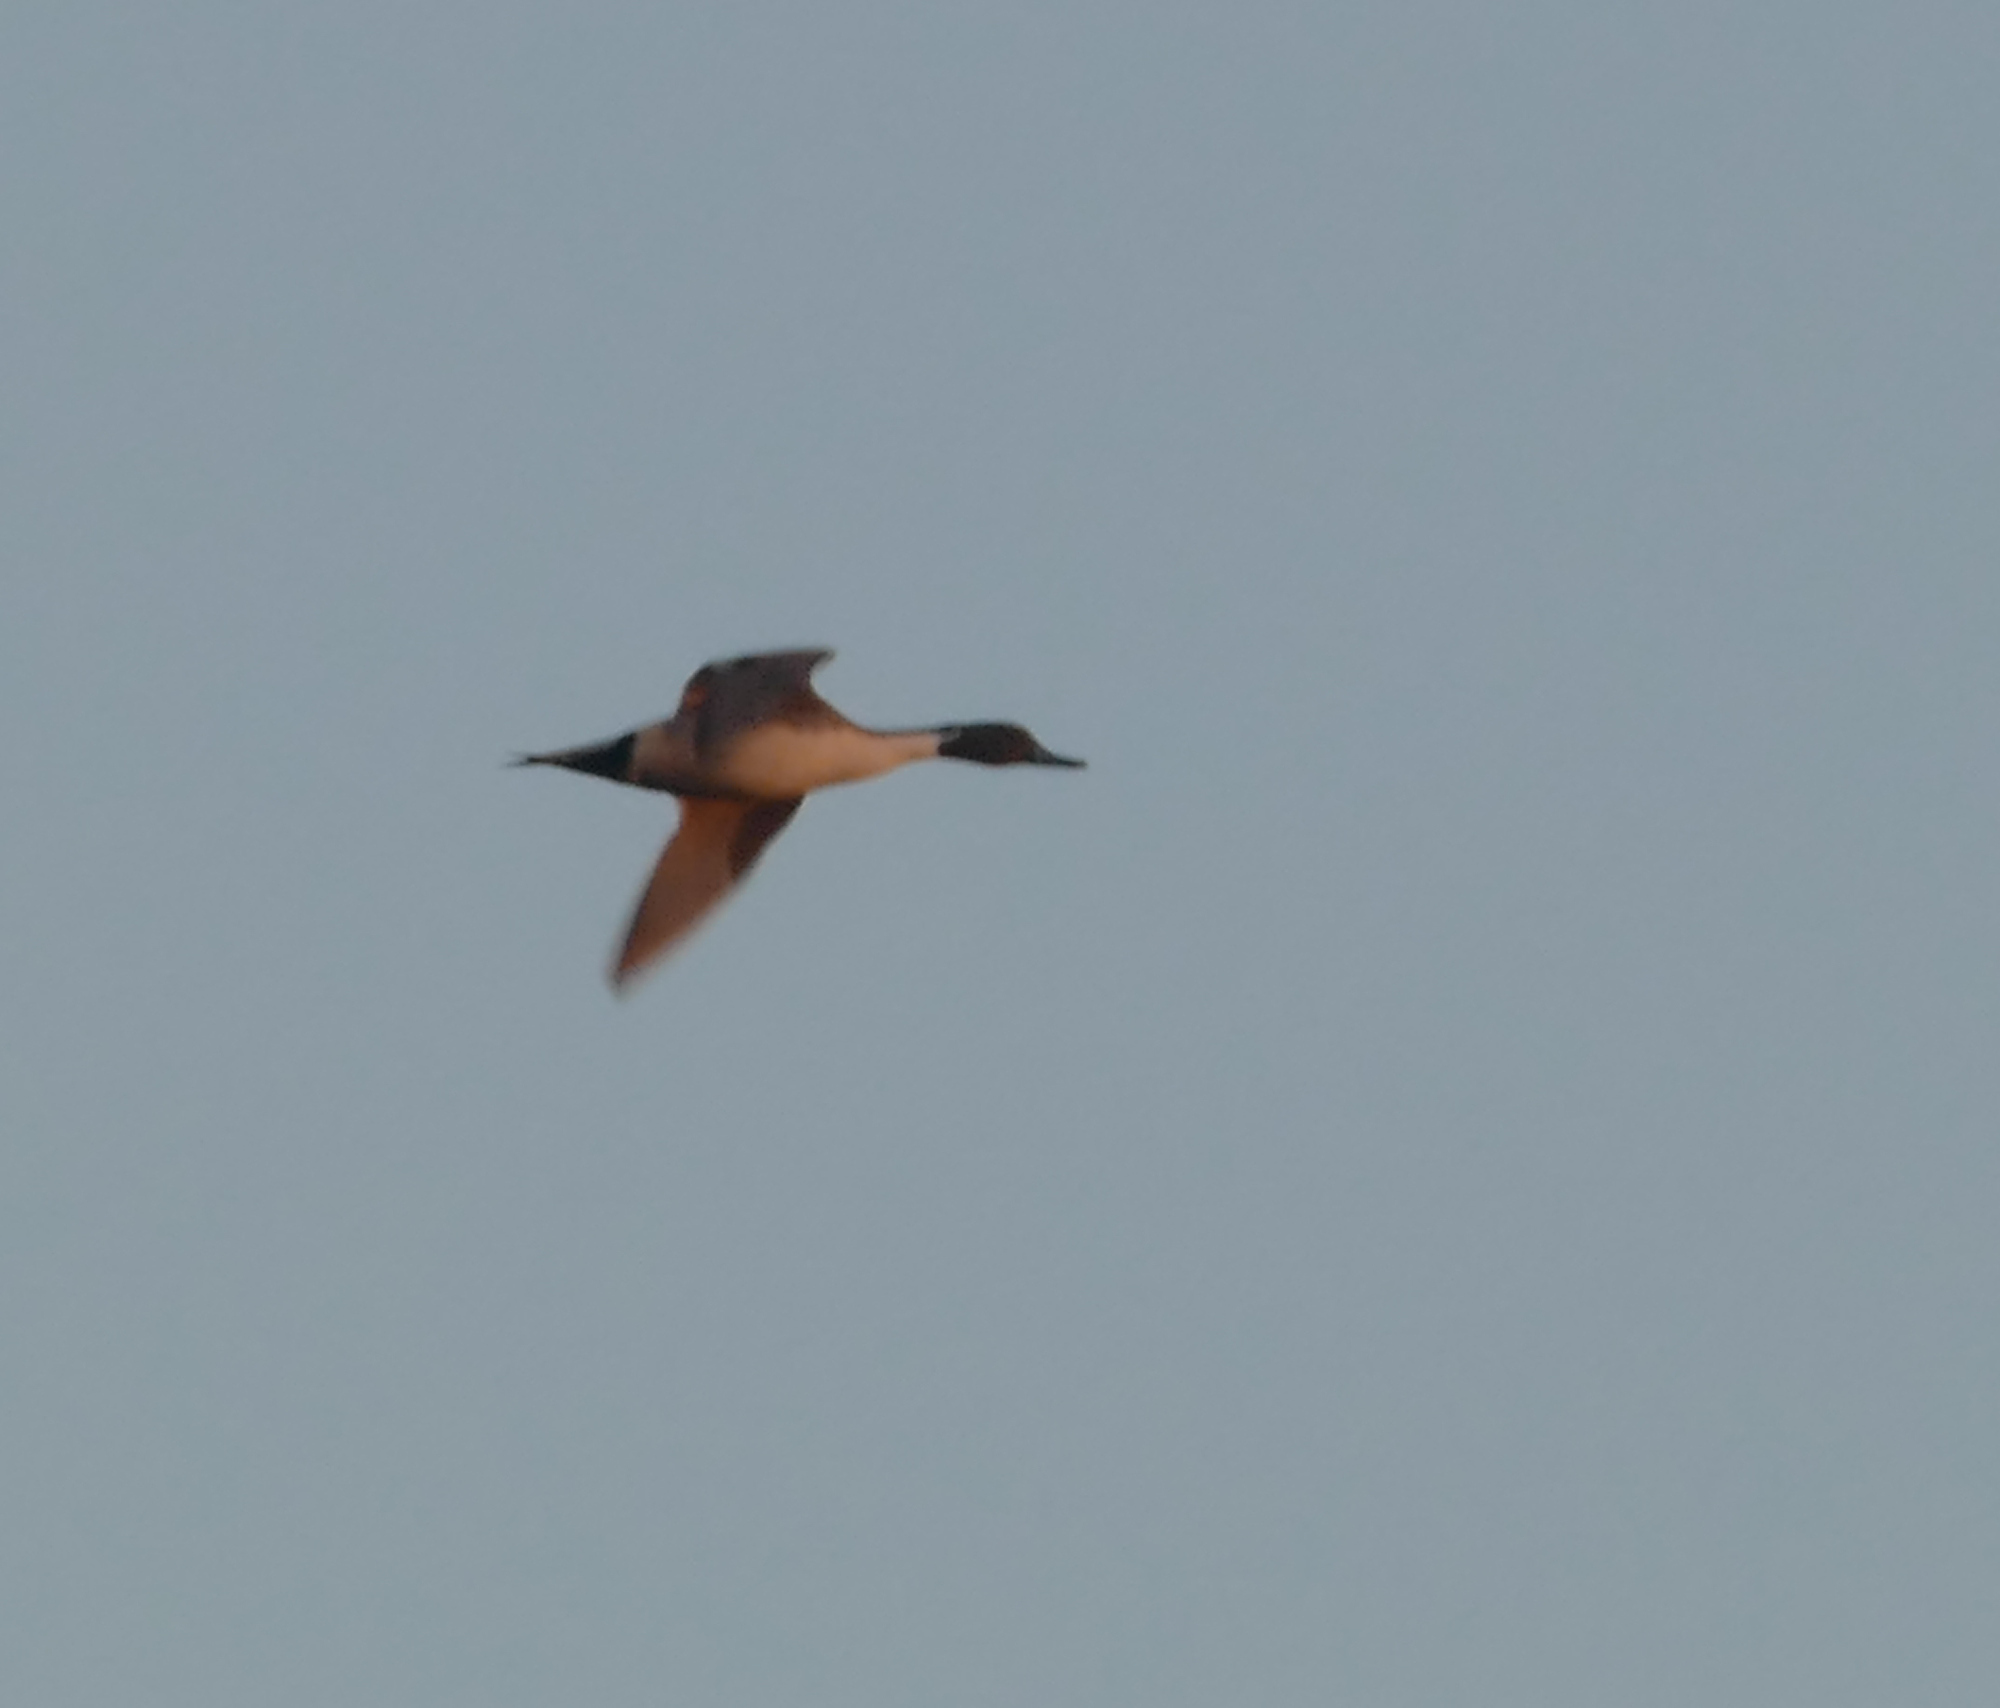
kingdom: Animalia
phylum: Chordata
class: Aves
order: Anseriformes
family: Anatidae
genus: Anas
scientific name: Anas acuta
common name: Northern pintail
